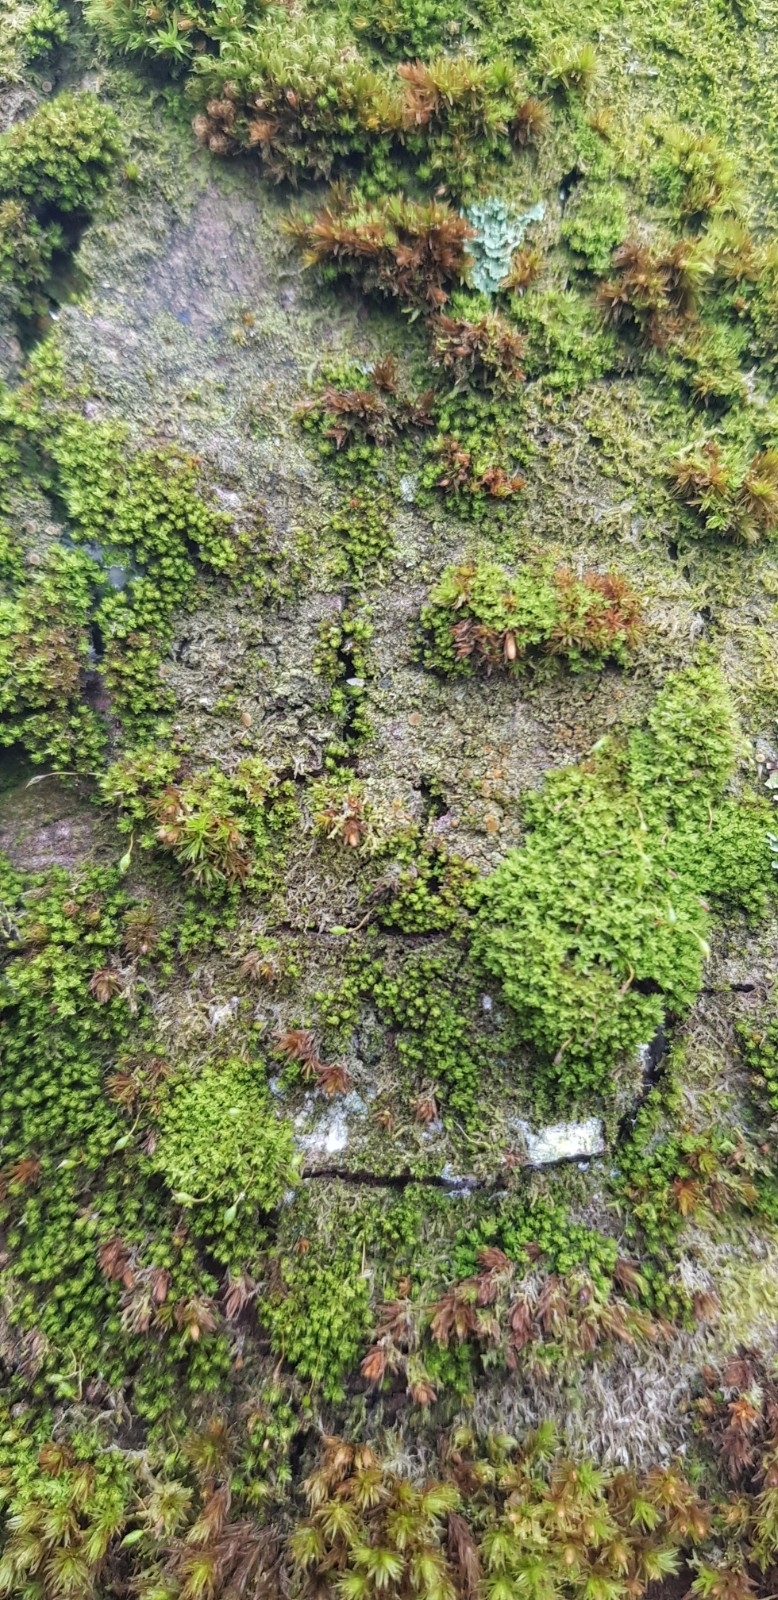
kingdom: Plantae
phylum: Bryophyta
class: Bryopsida
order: Orthotrichales
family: Orthotrichaceae
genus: Zygodon
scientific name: Zygodon conoideus
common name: Lesser yoke-moss
